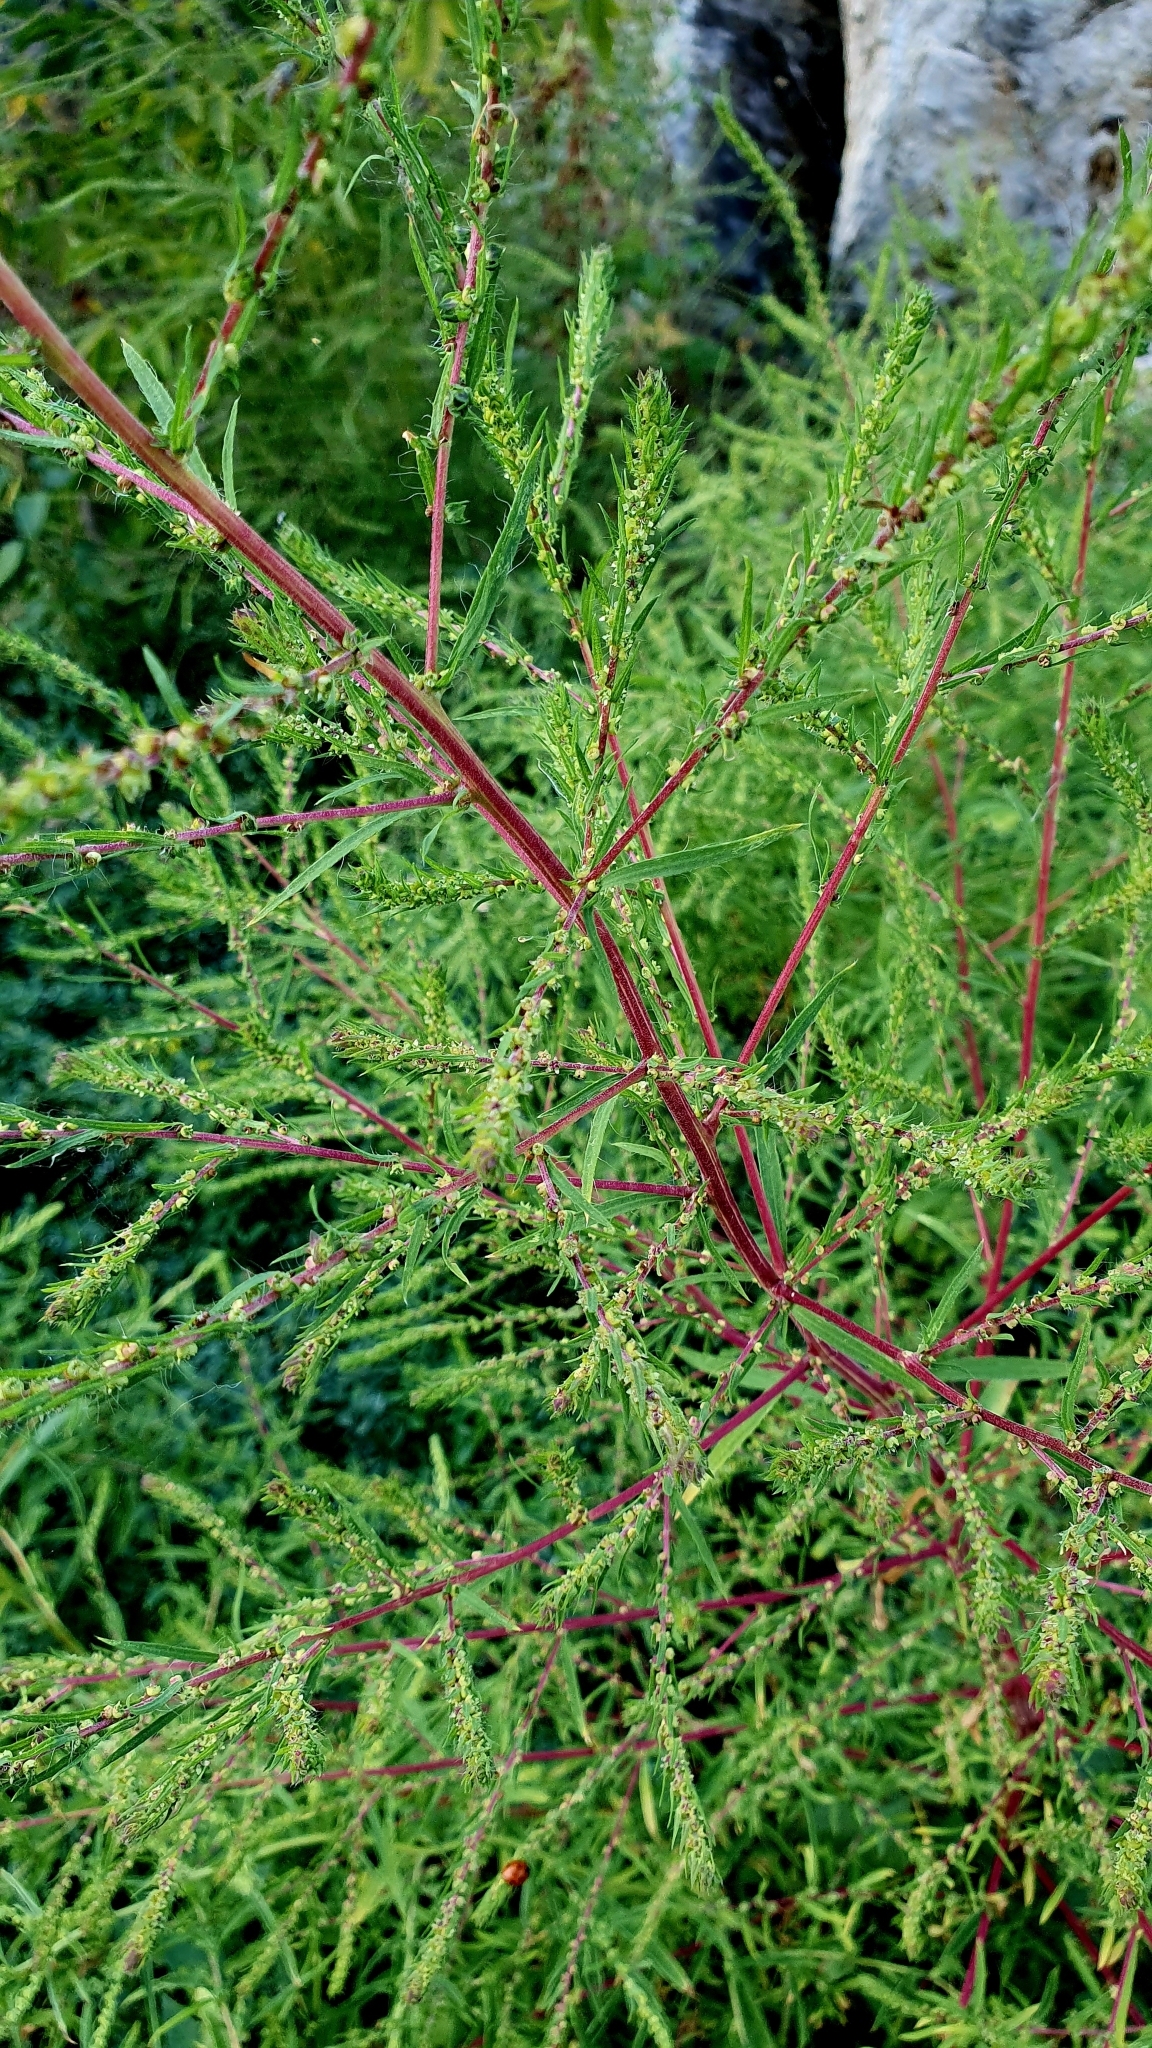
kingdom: Plantae
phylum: Tracheophyta
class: Magnoliopsida
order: Caryophyllales
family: Amaranthaceae
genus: Bassia
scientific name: Bassia scoparia
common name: Belvedere
